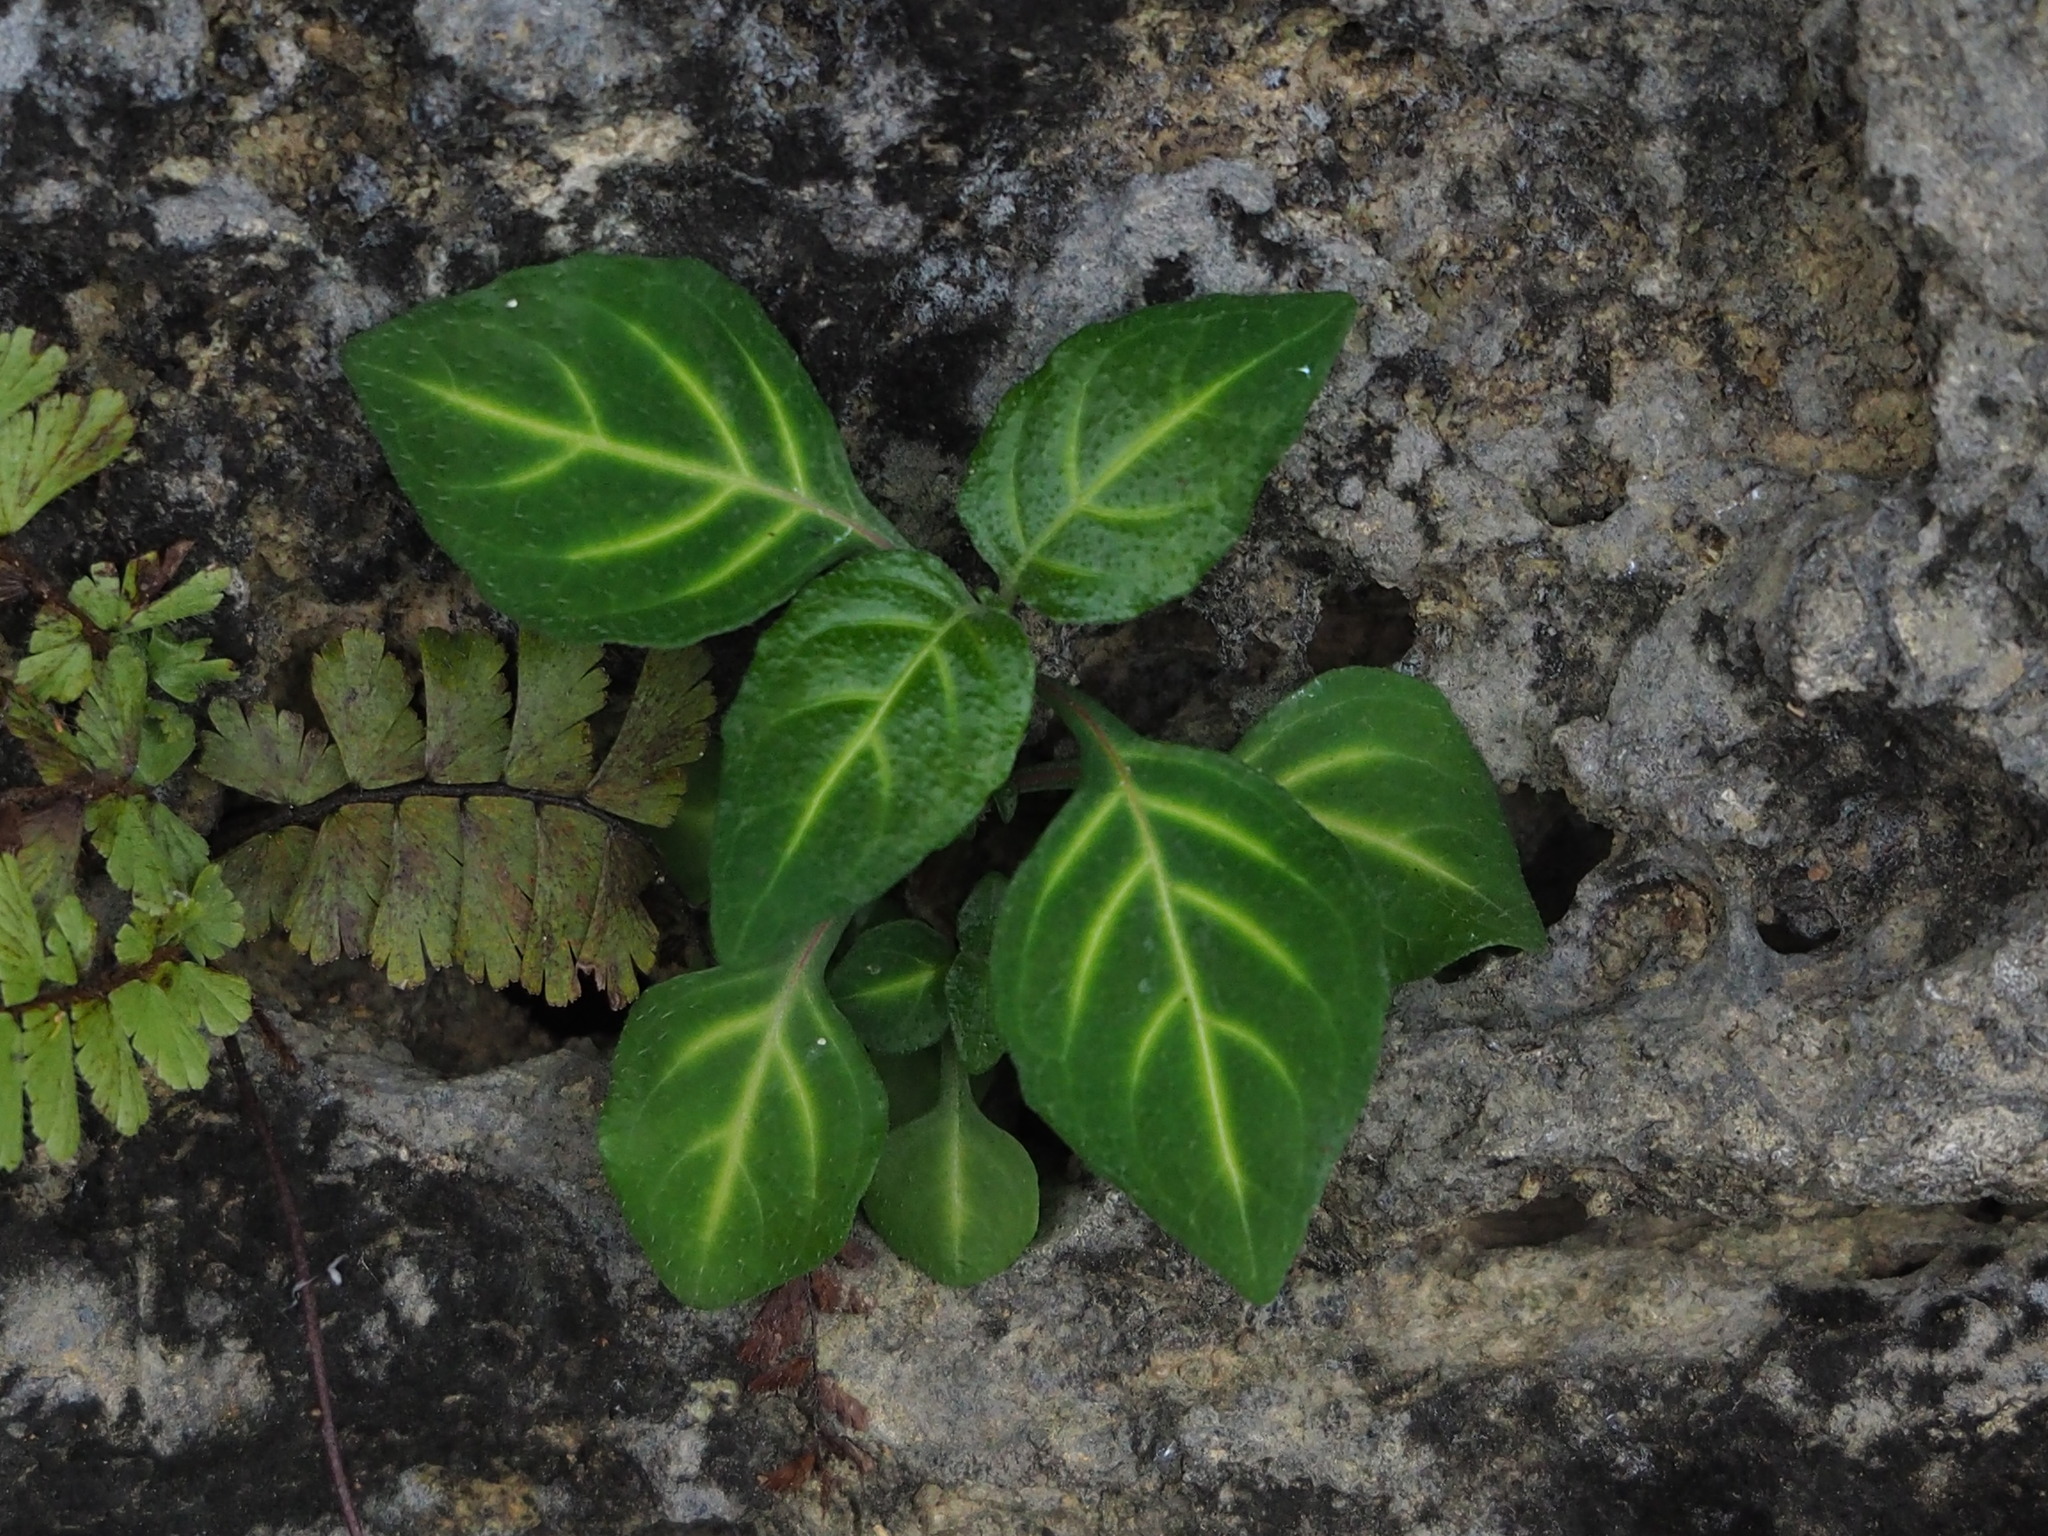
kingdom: Plantae
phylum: Tracheophyta
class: Magnoliopsida
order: Lamiales
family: Acanthaceae
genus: Lepidagathis
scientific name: Lepidagathis inaequalis
